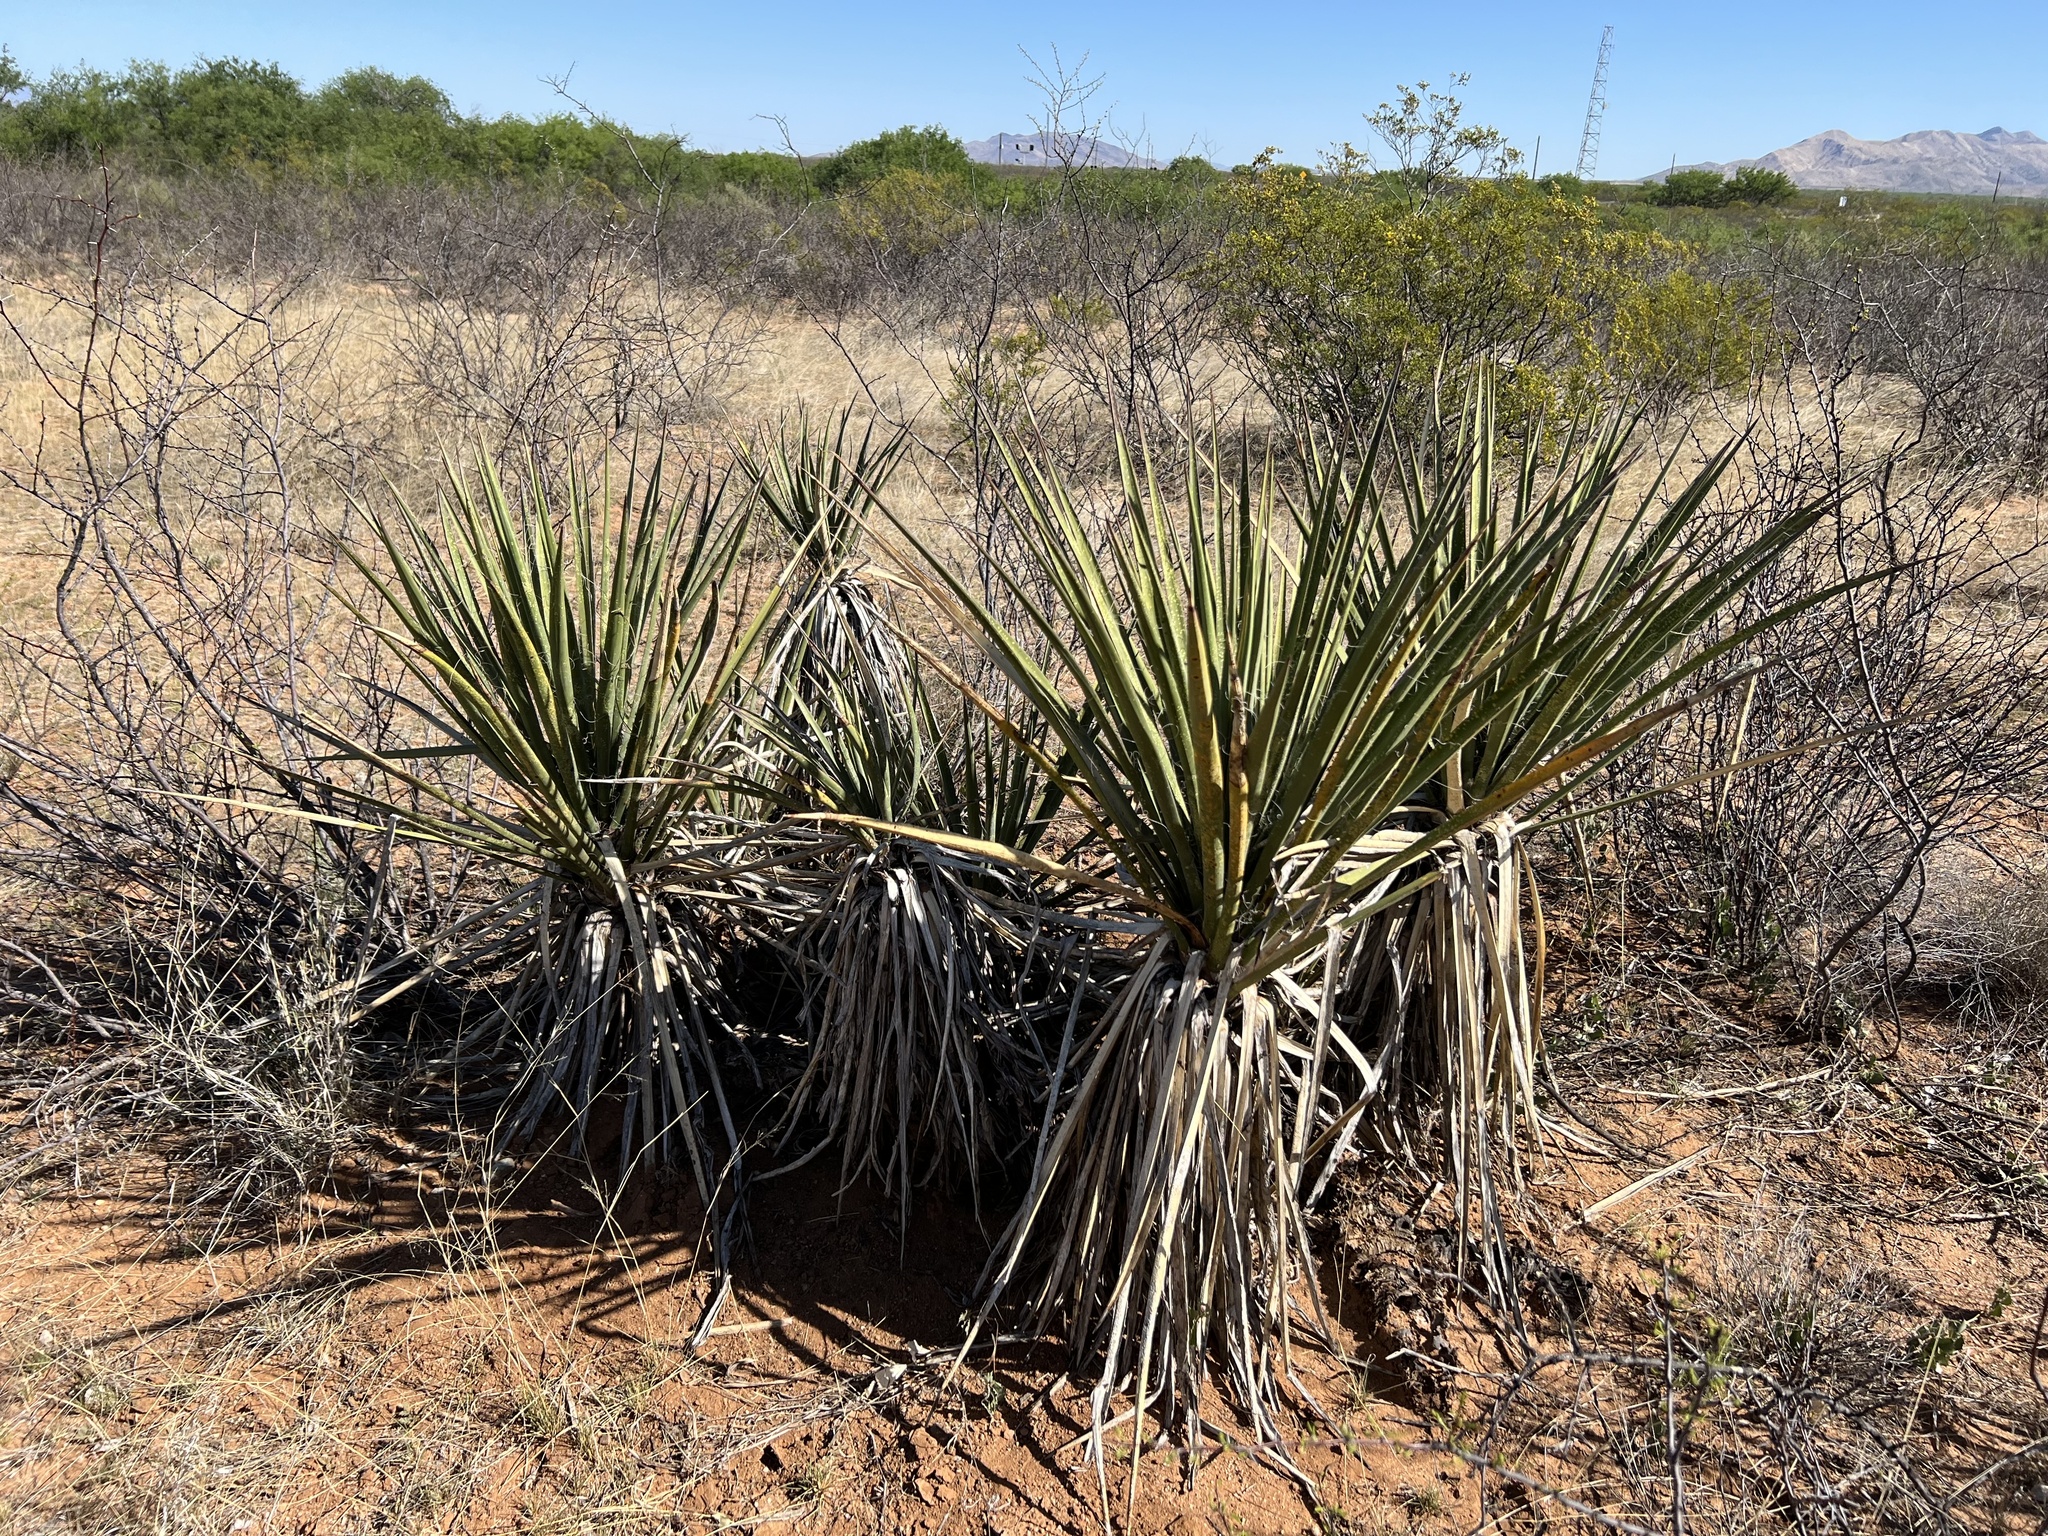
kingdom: Plantae
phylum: Tracheophyta
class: Liliopsida
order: Asparagales
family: Asparagaceae
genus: Yucca
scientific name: Yucca baccata
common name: Banana yucca
